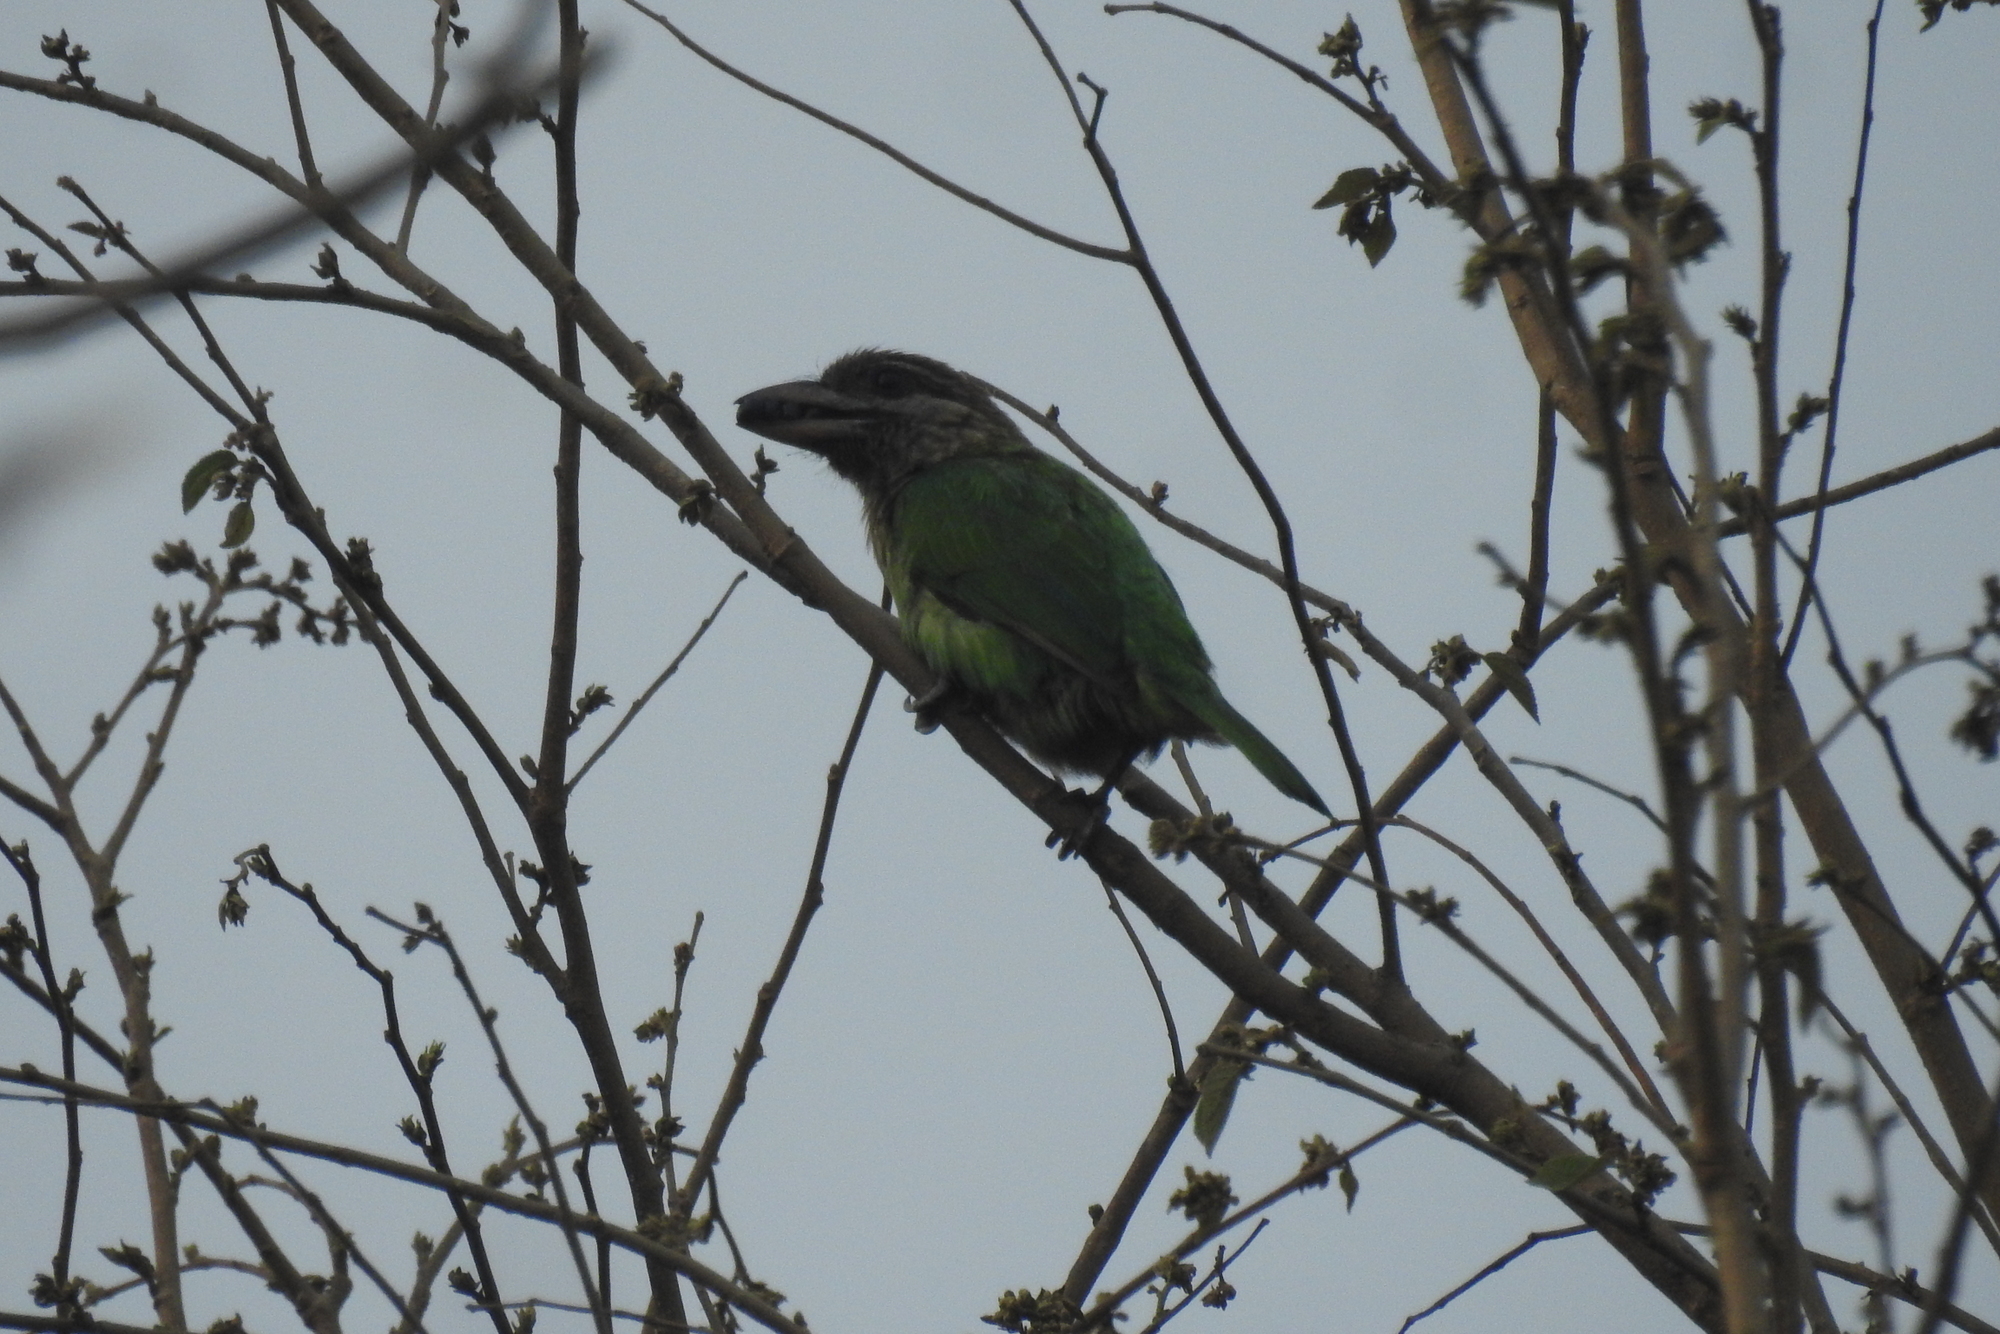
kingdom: Animalia
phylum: Chordata
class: Aves
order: Piciformes
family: Megalaimidae
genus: Psilopogon
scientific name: Psilopogon viridis
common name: White-cheeked barbet
